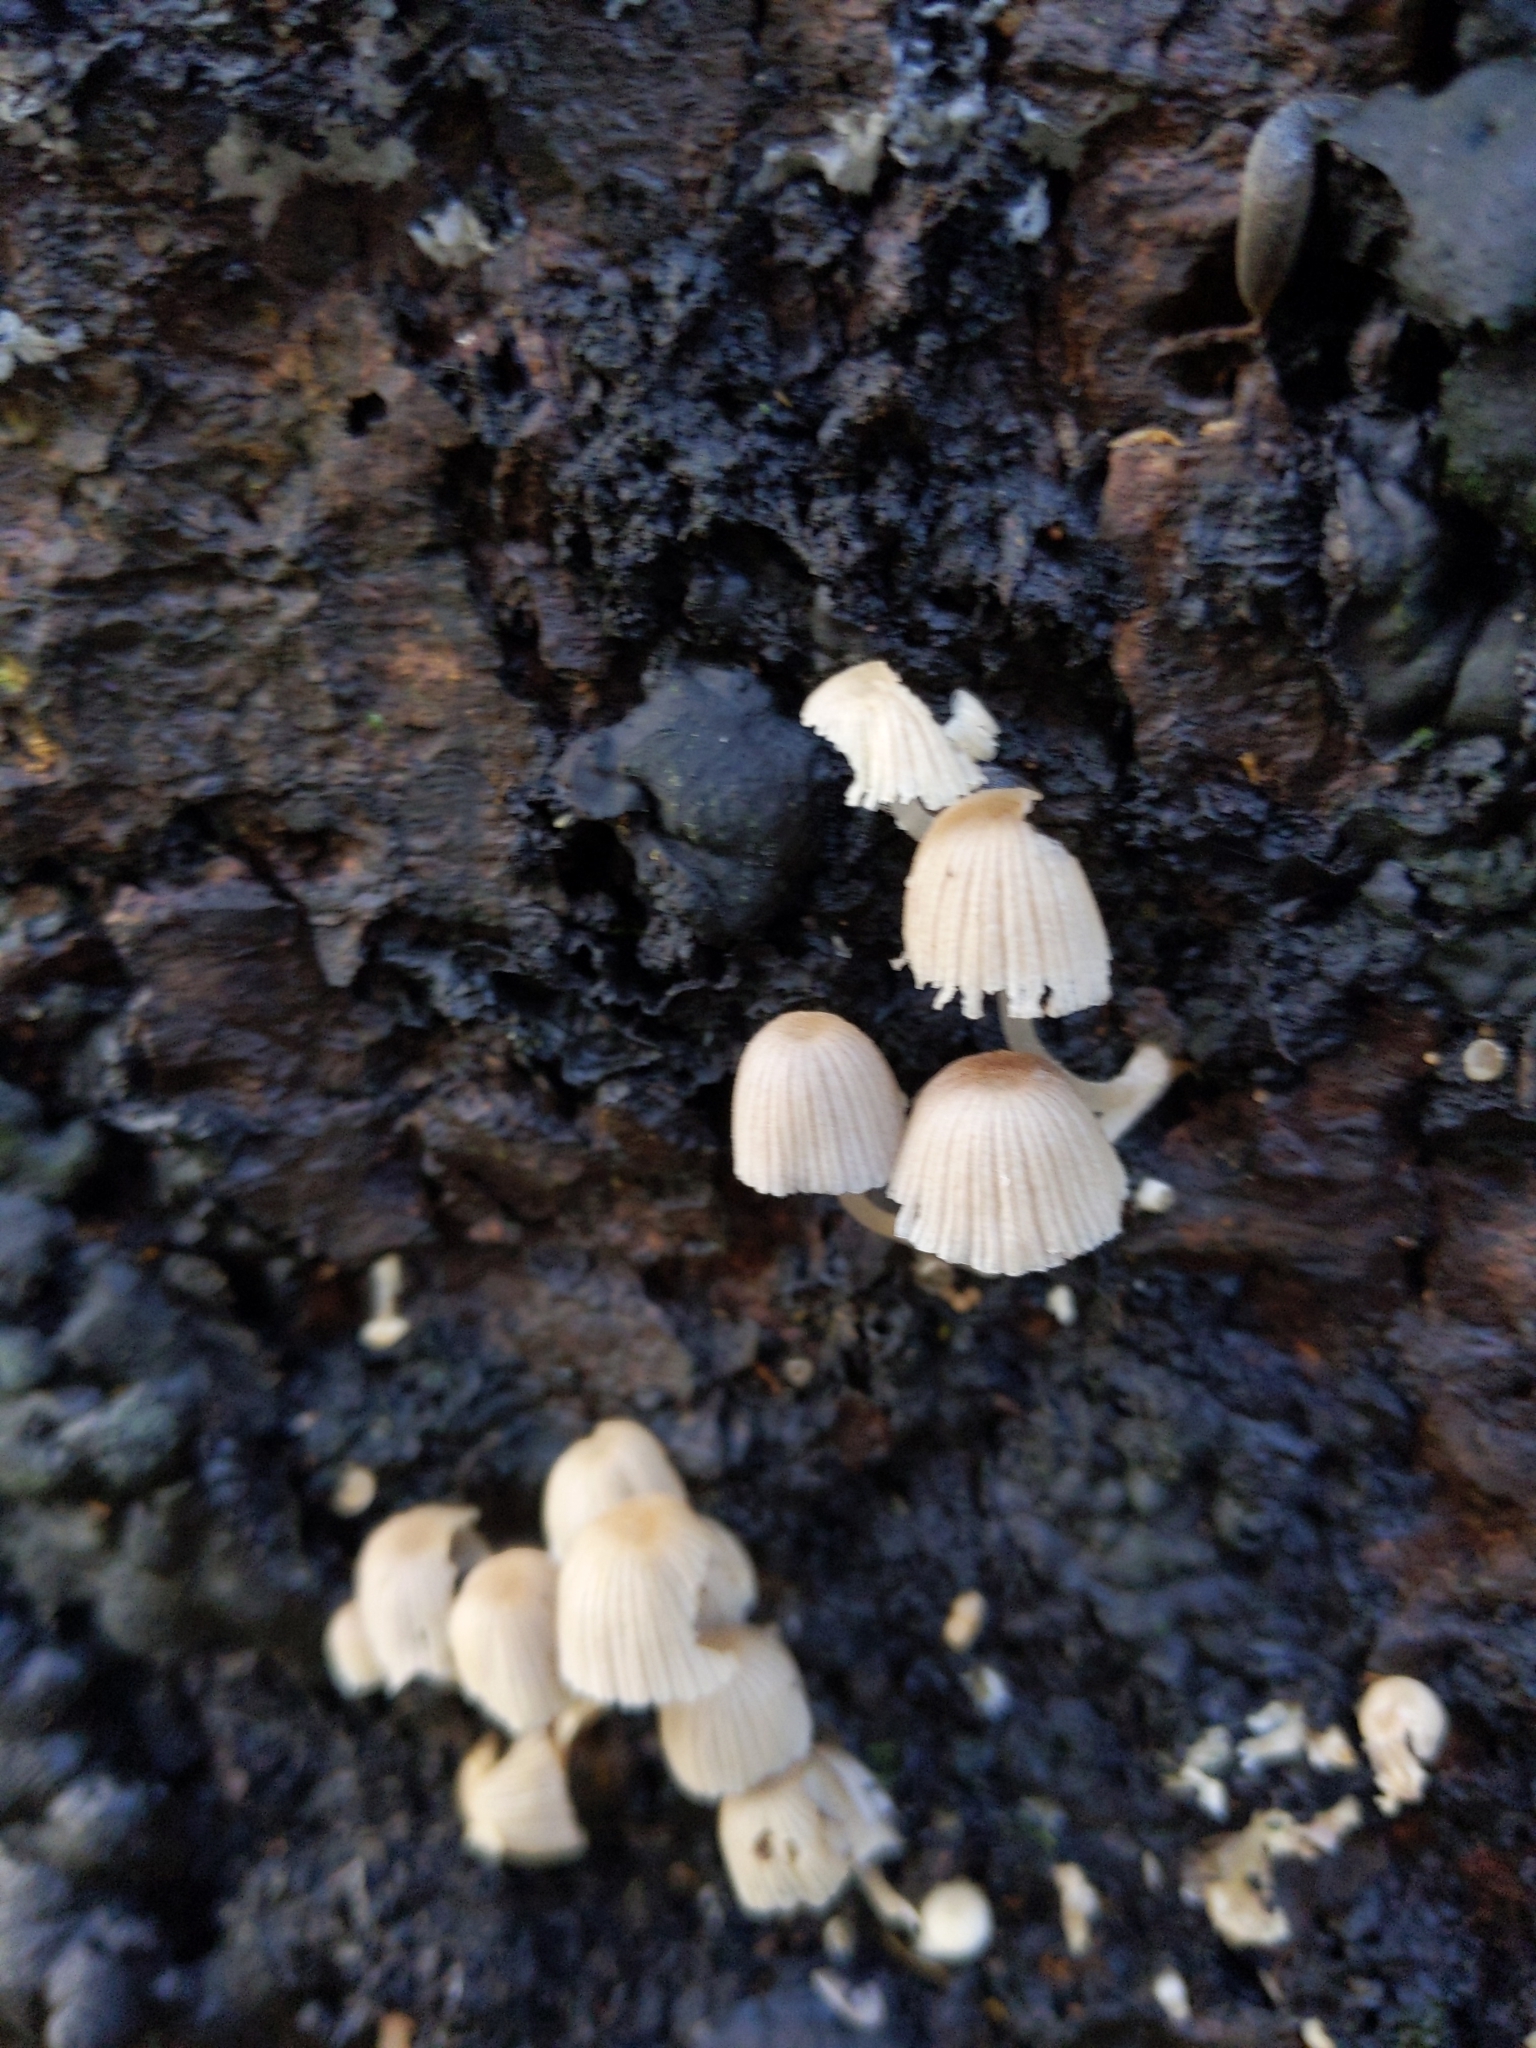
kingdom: Fungi
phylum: Basidiomycota
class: Agaricomycetes
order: Agaricales
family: Psathyrellaceae
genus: Coprinellus
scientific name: Coprinellus disseminatus
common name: Fairies' bonnets
